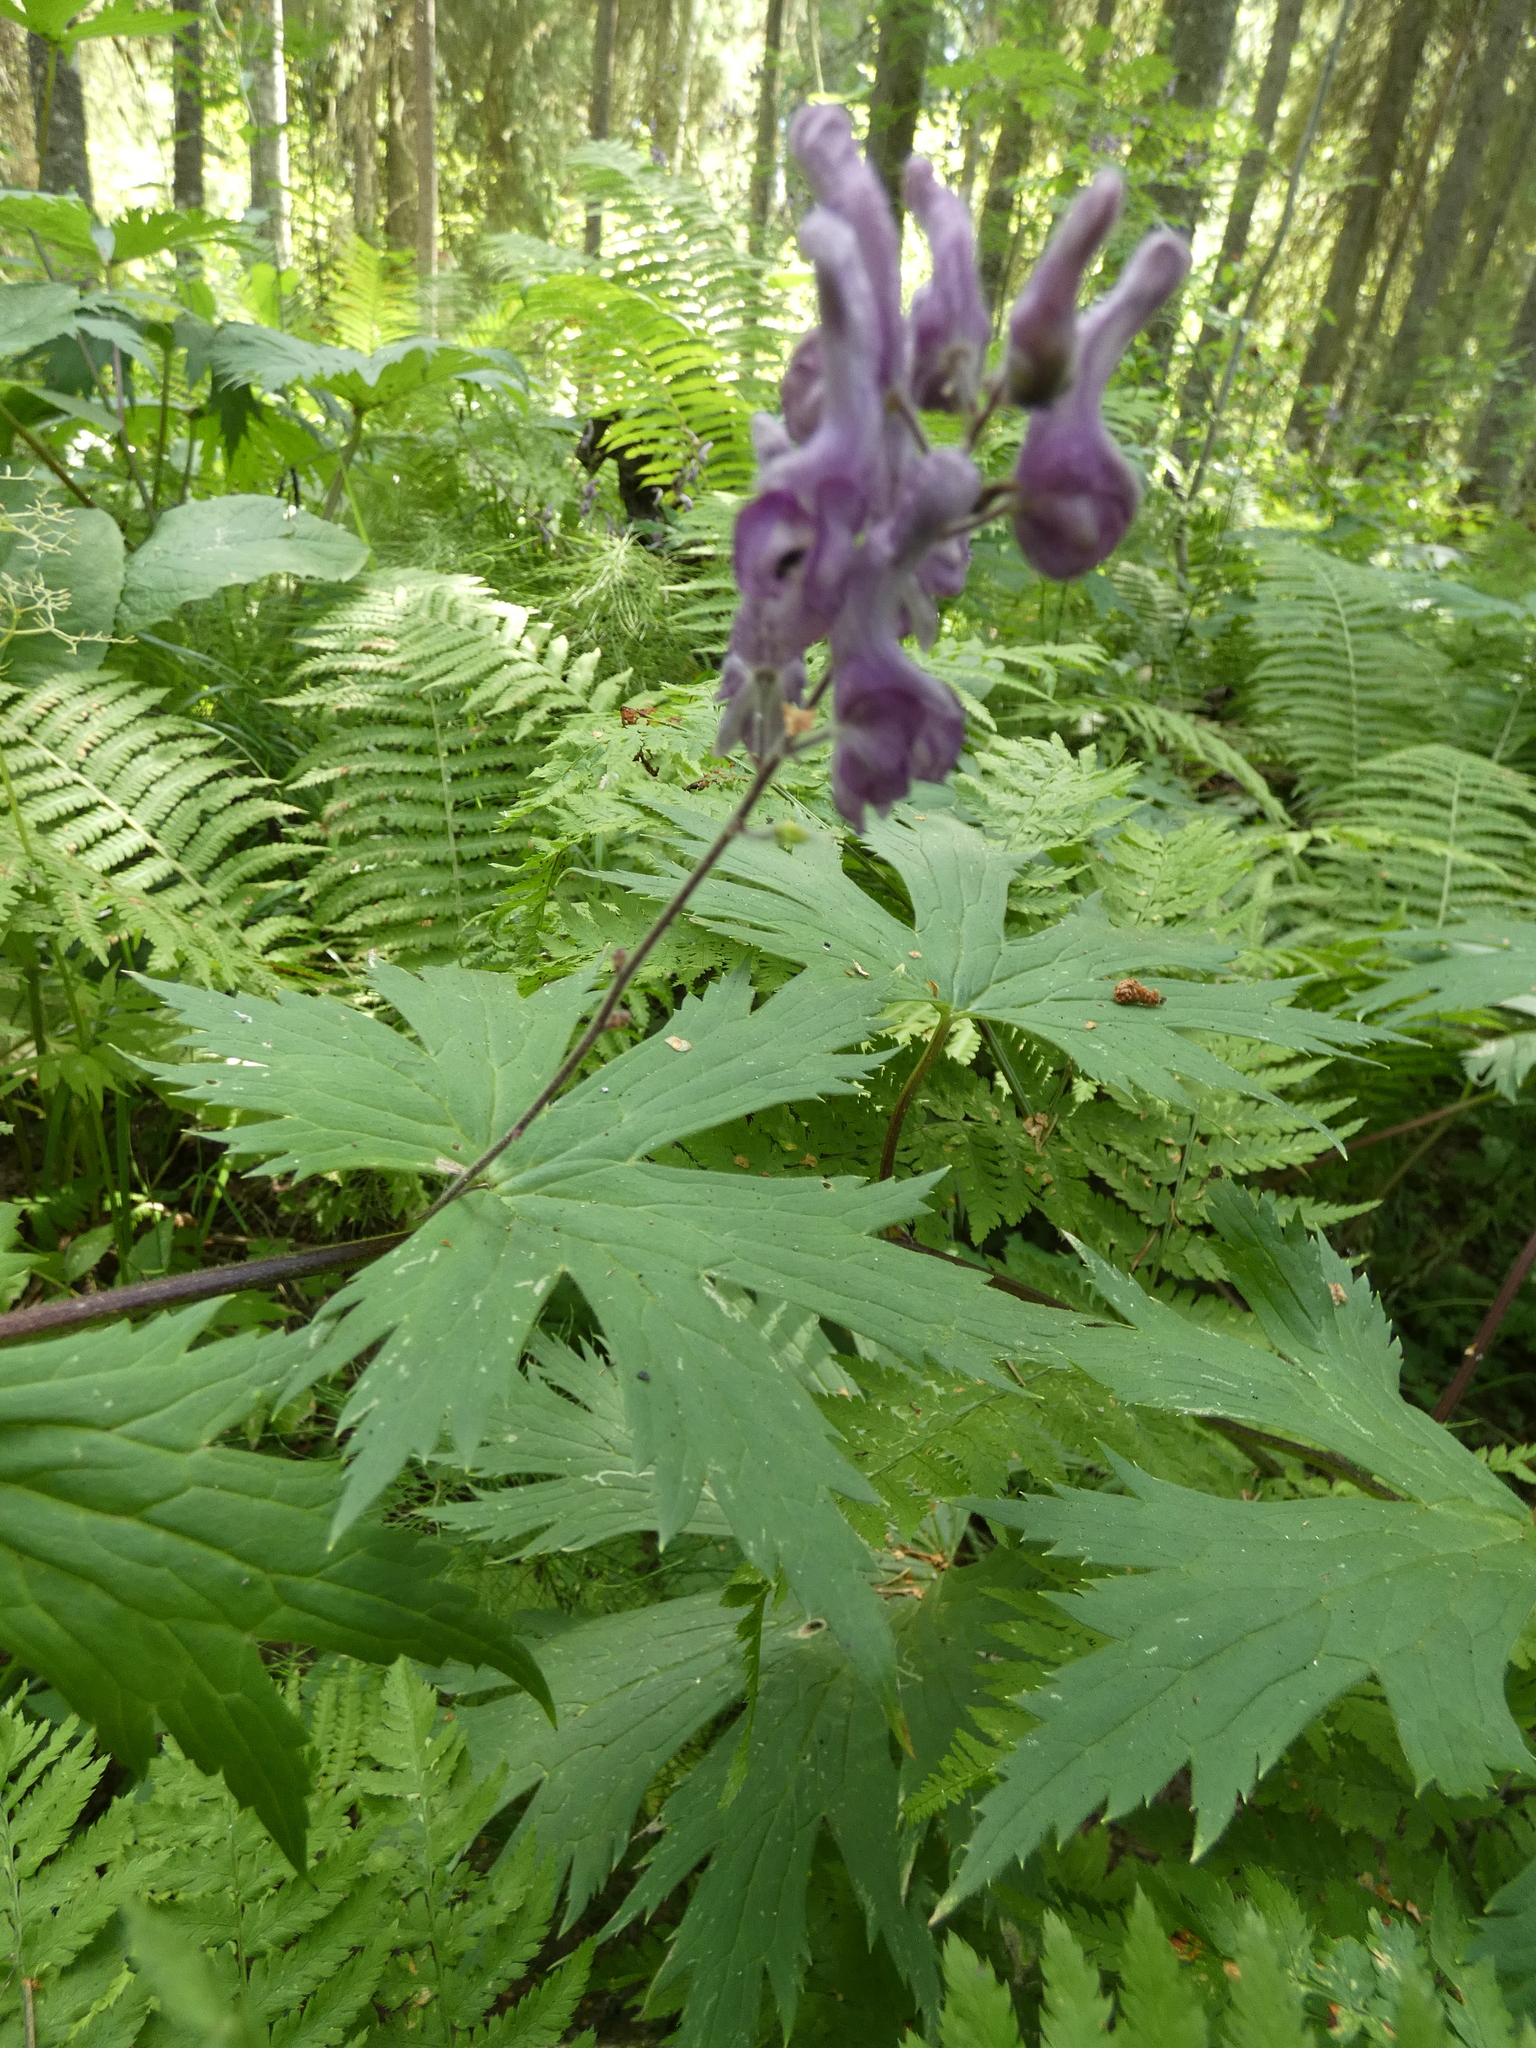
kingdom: Plantae
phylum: Tracheophyta
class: Magnoliopsida
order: Ranunculales
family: Ranunculaceae
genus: Aconitum
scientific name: Aconitum septentrionale
